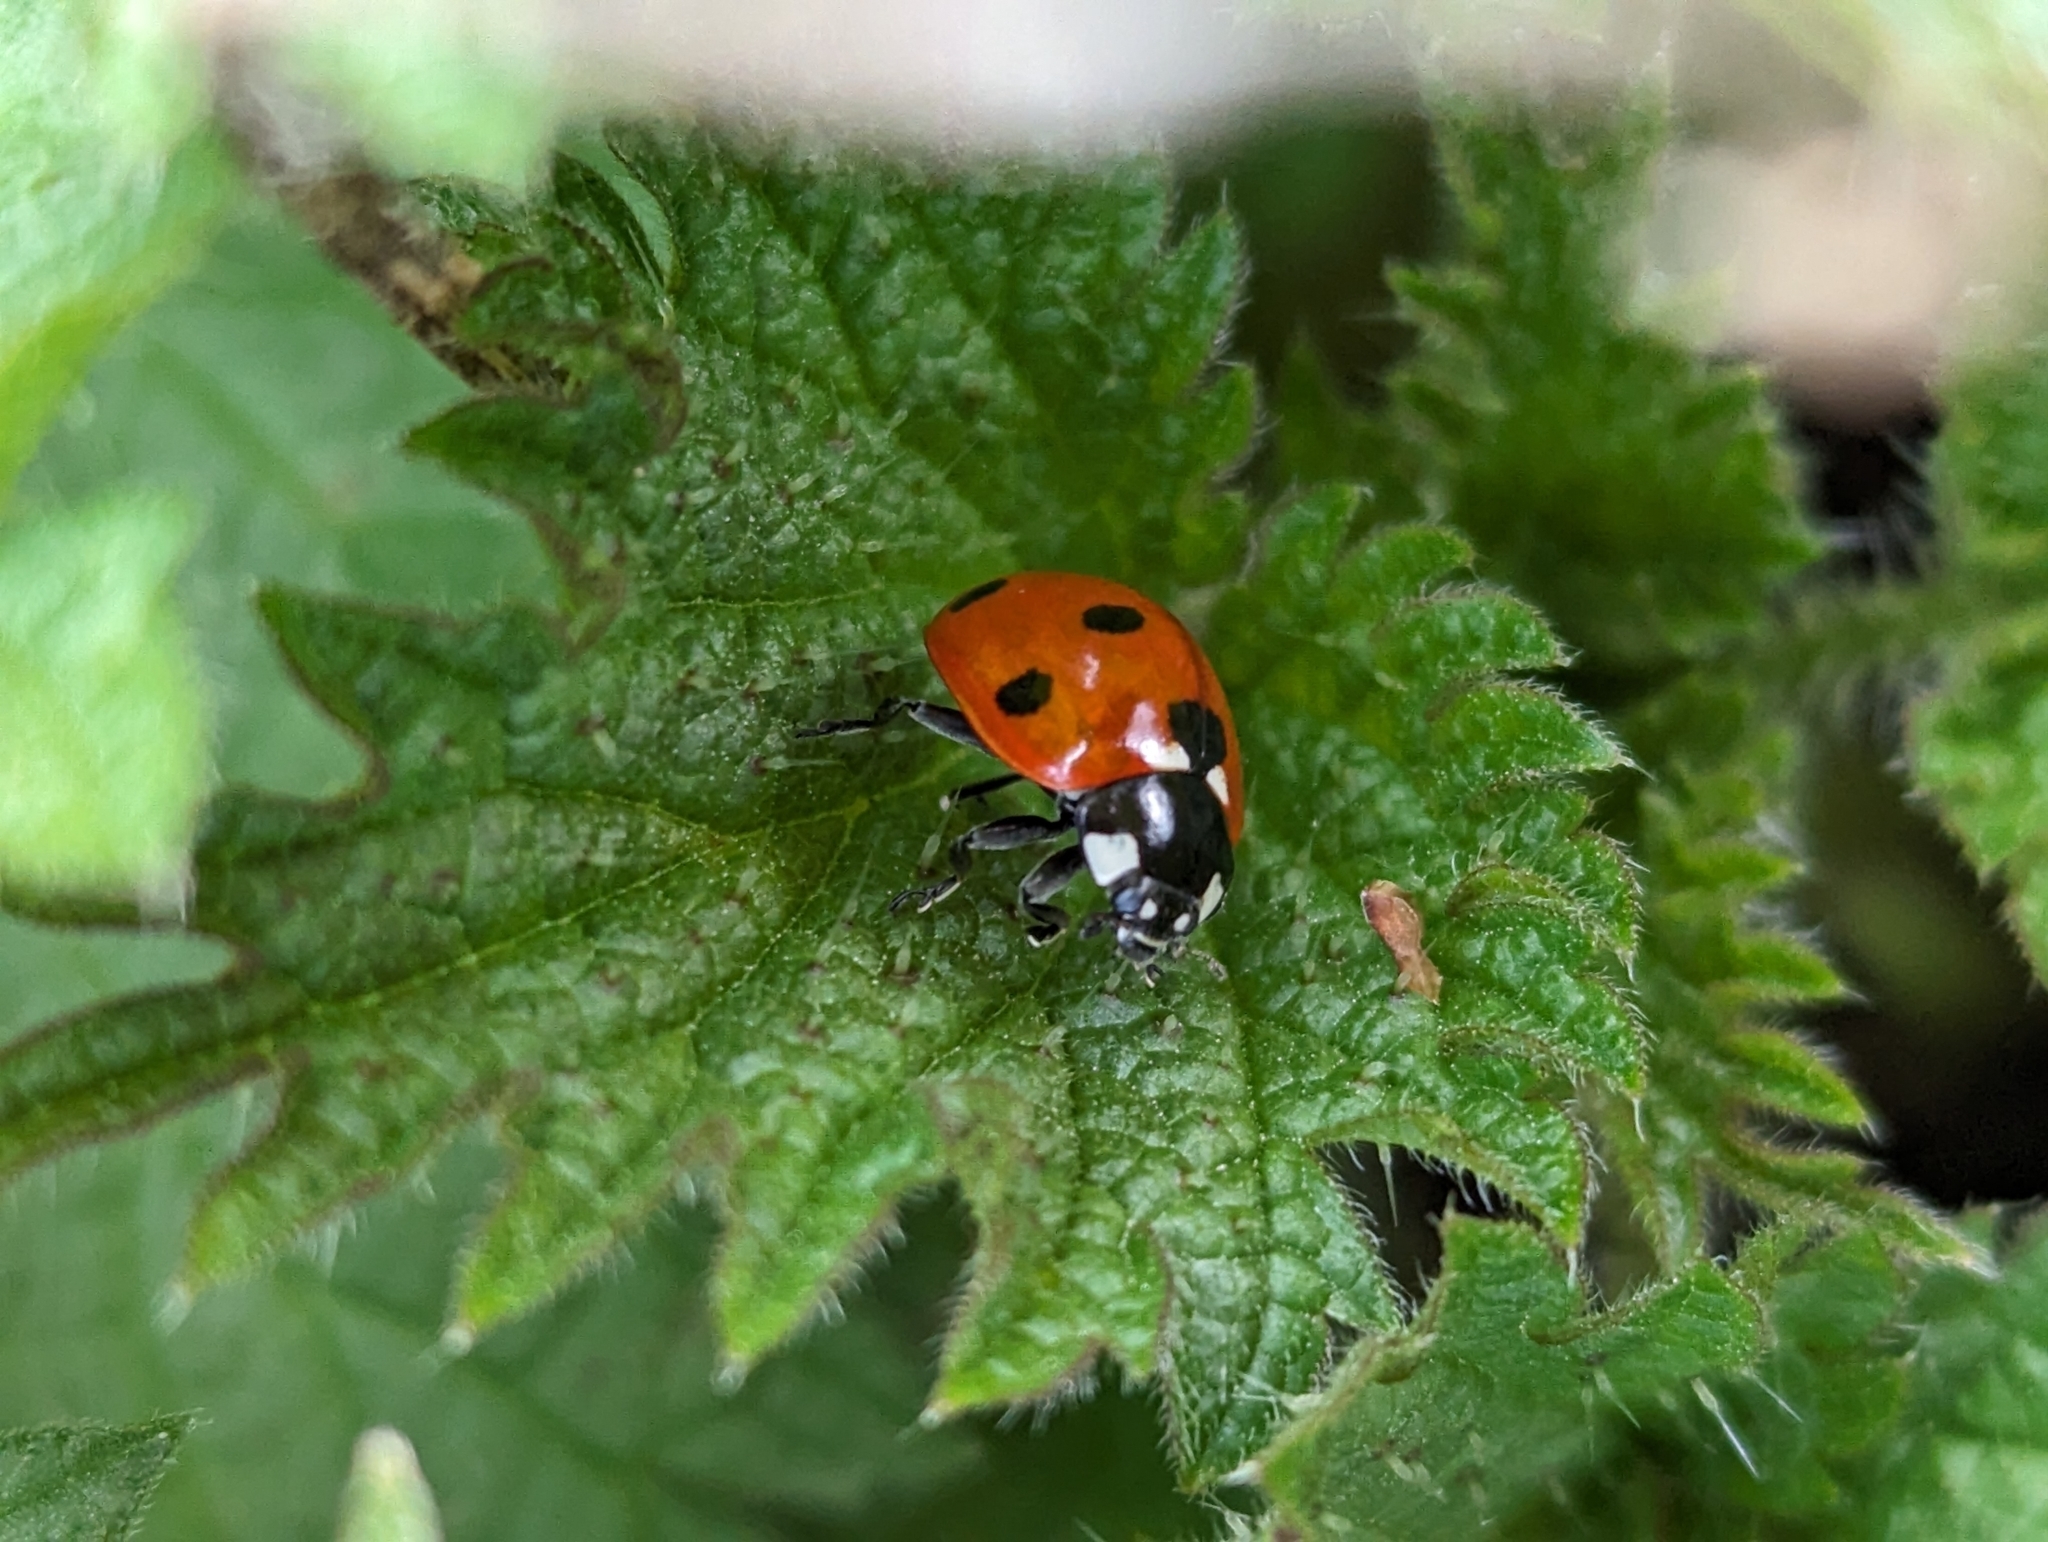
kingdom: Animalia
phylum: Arthropoda
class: Insecta
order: Coleoptera
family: Coccinellidae
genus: Coccinella
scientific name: Coccinella septempunctata
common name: Sevenspotted lady beetle
